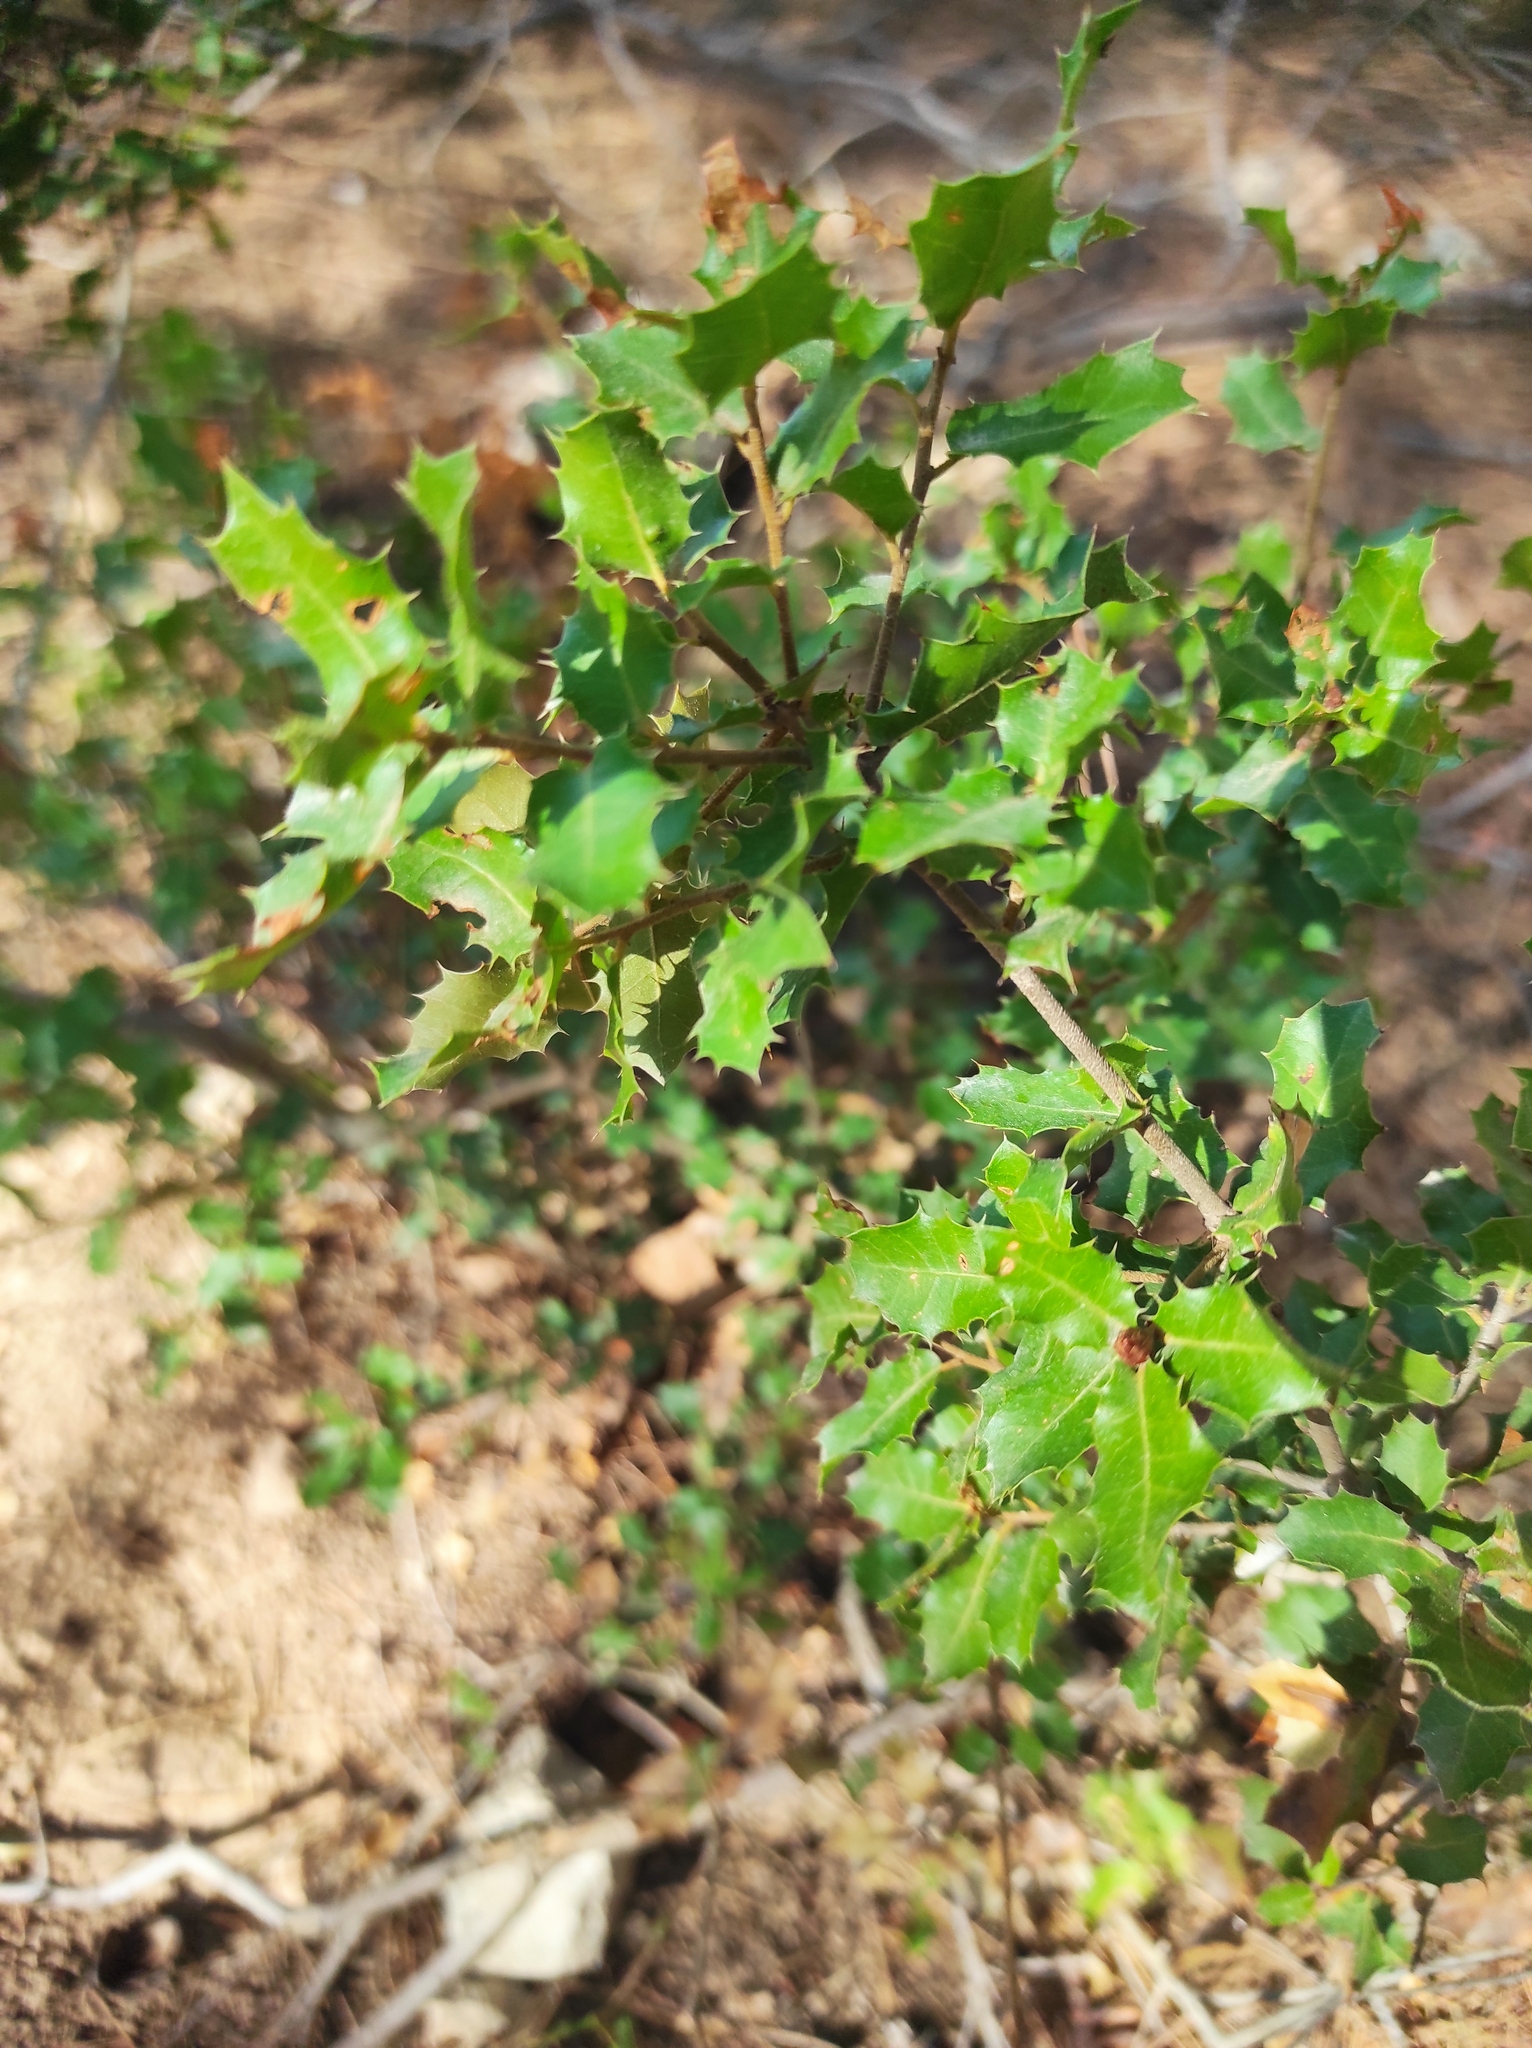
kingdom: Plantae
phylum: Tracheophyta
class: Magnoliopsida
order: Fagales
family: Fagaceae
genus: Quercus
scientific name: Quercus coccifera
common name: Kermes oak
